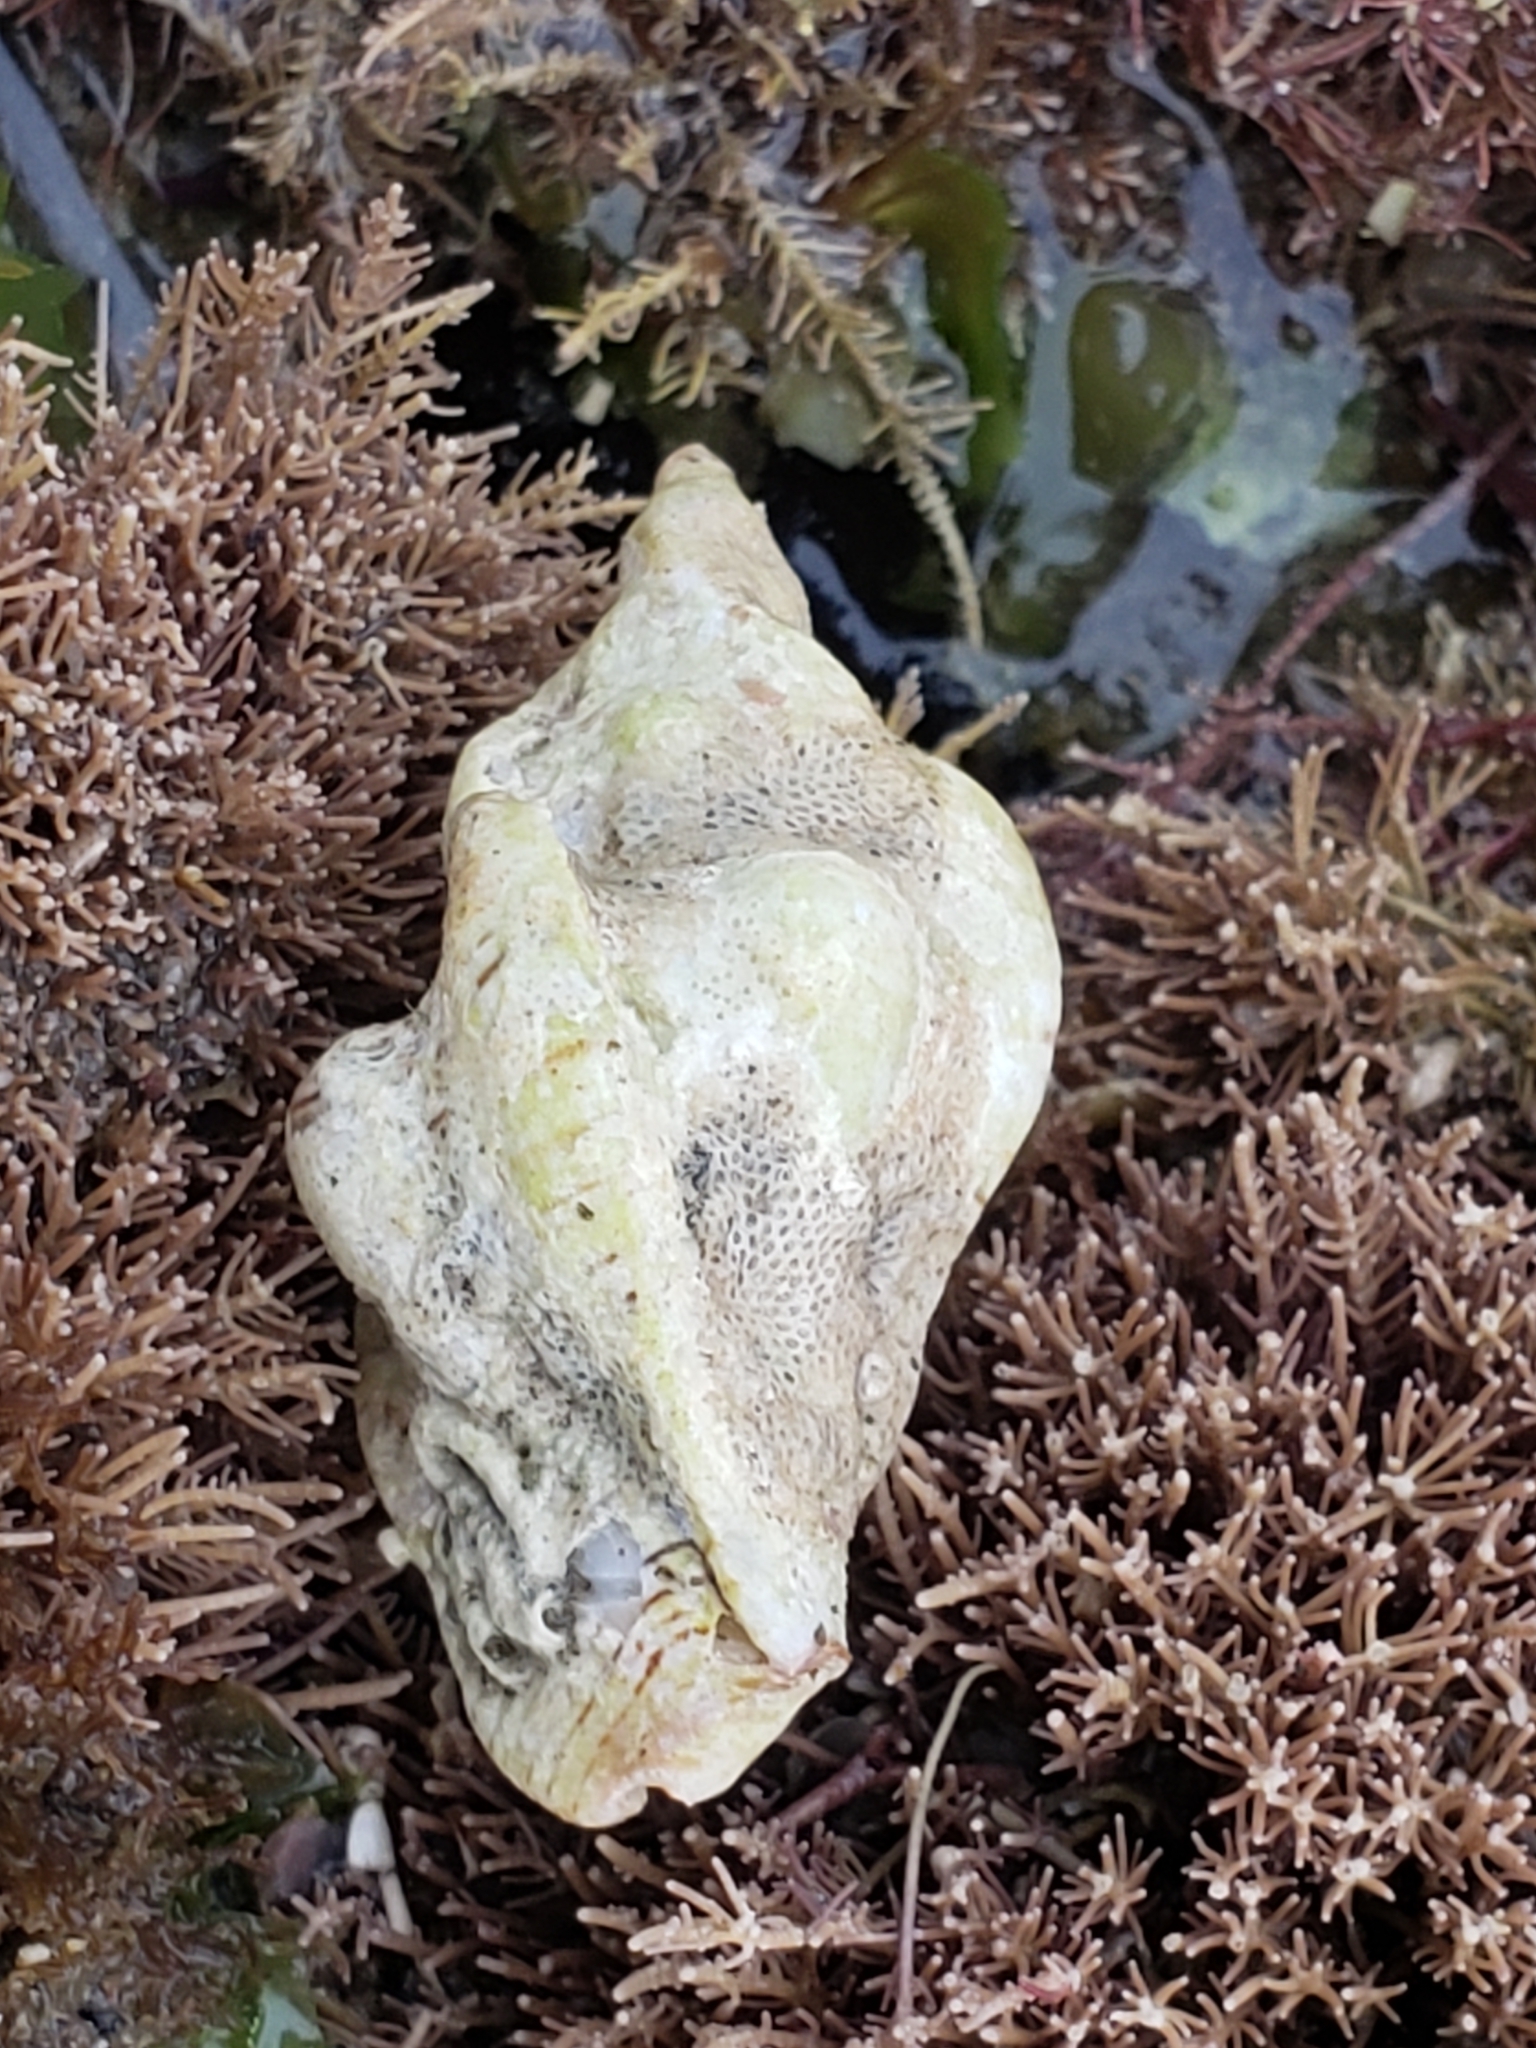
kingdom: Animalia
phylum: Mollusca
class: Gastropoda
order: Neogastropoda
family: Muricidae
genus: Pteropurpura
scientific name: Pteropurpura festiva
